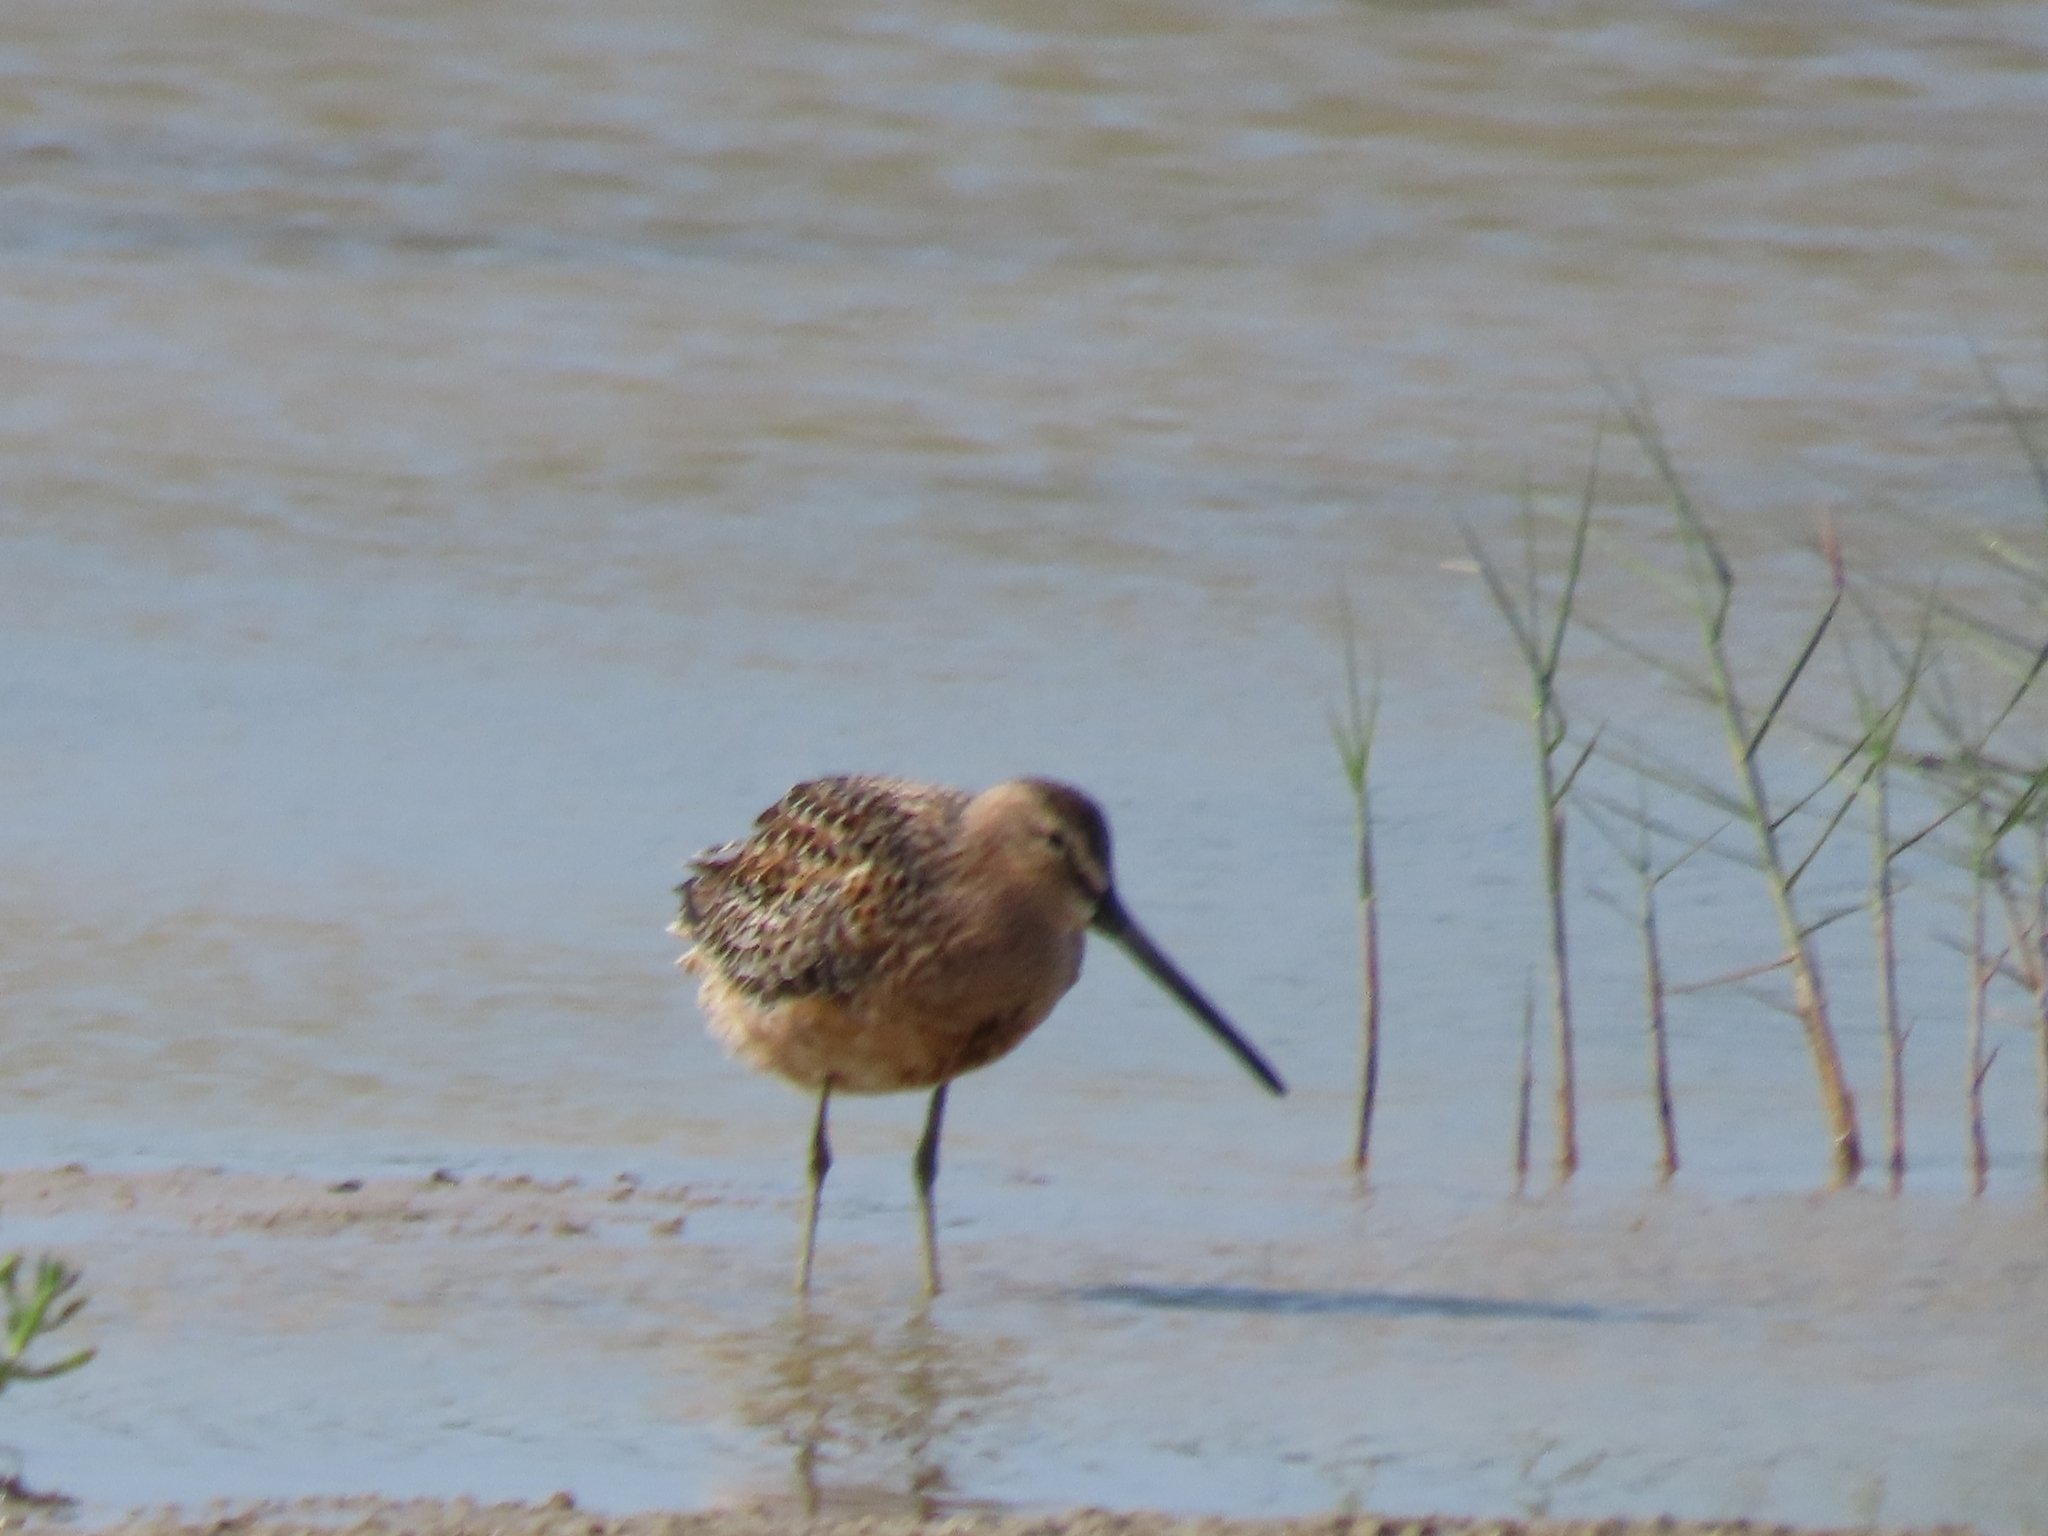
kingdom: Animalia
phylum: Chordata
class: Aves
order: Charadriiformes
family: Scolopacidae
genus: Limnodromus
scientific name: Limnodromus
